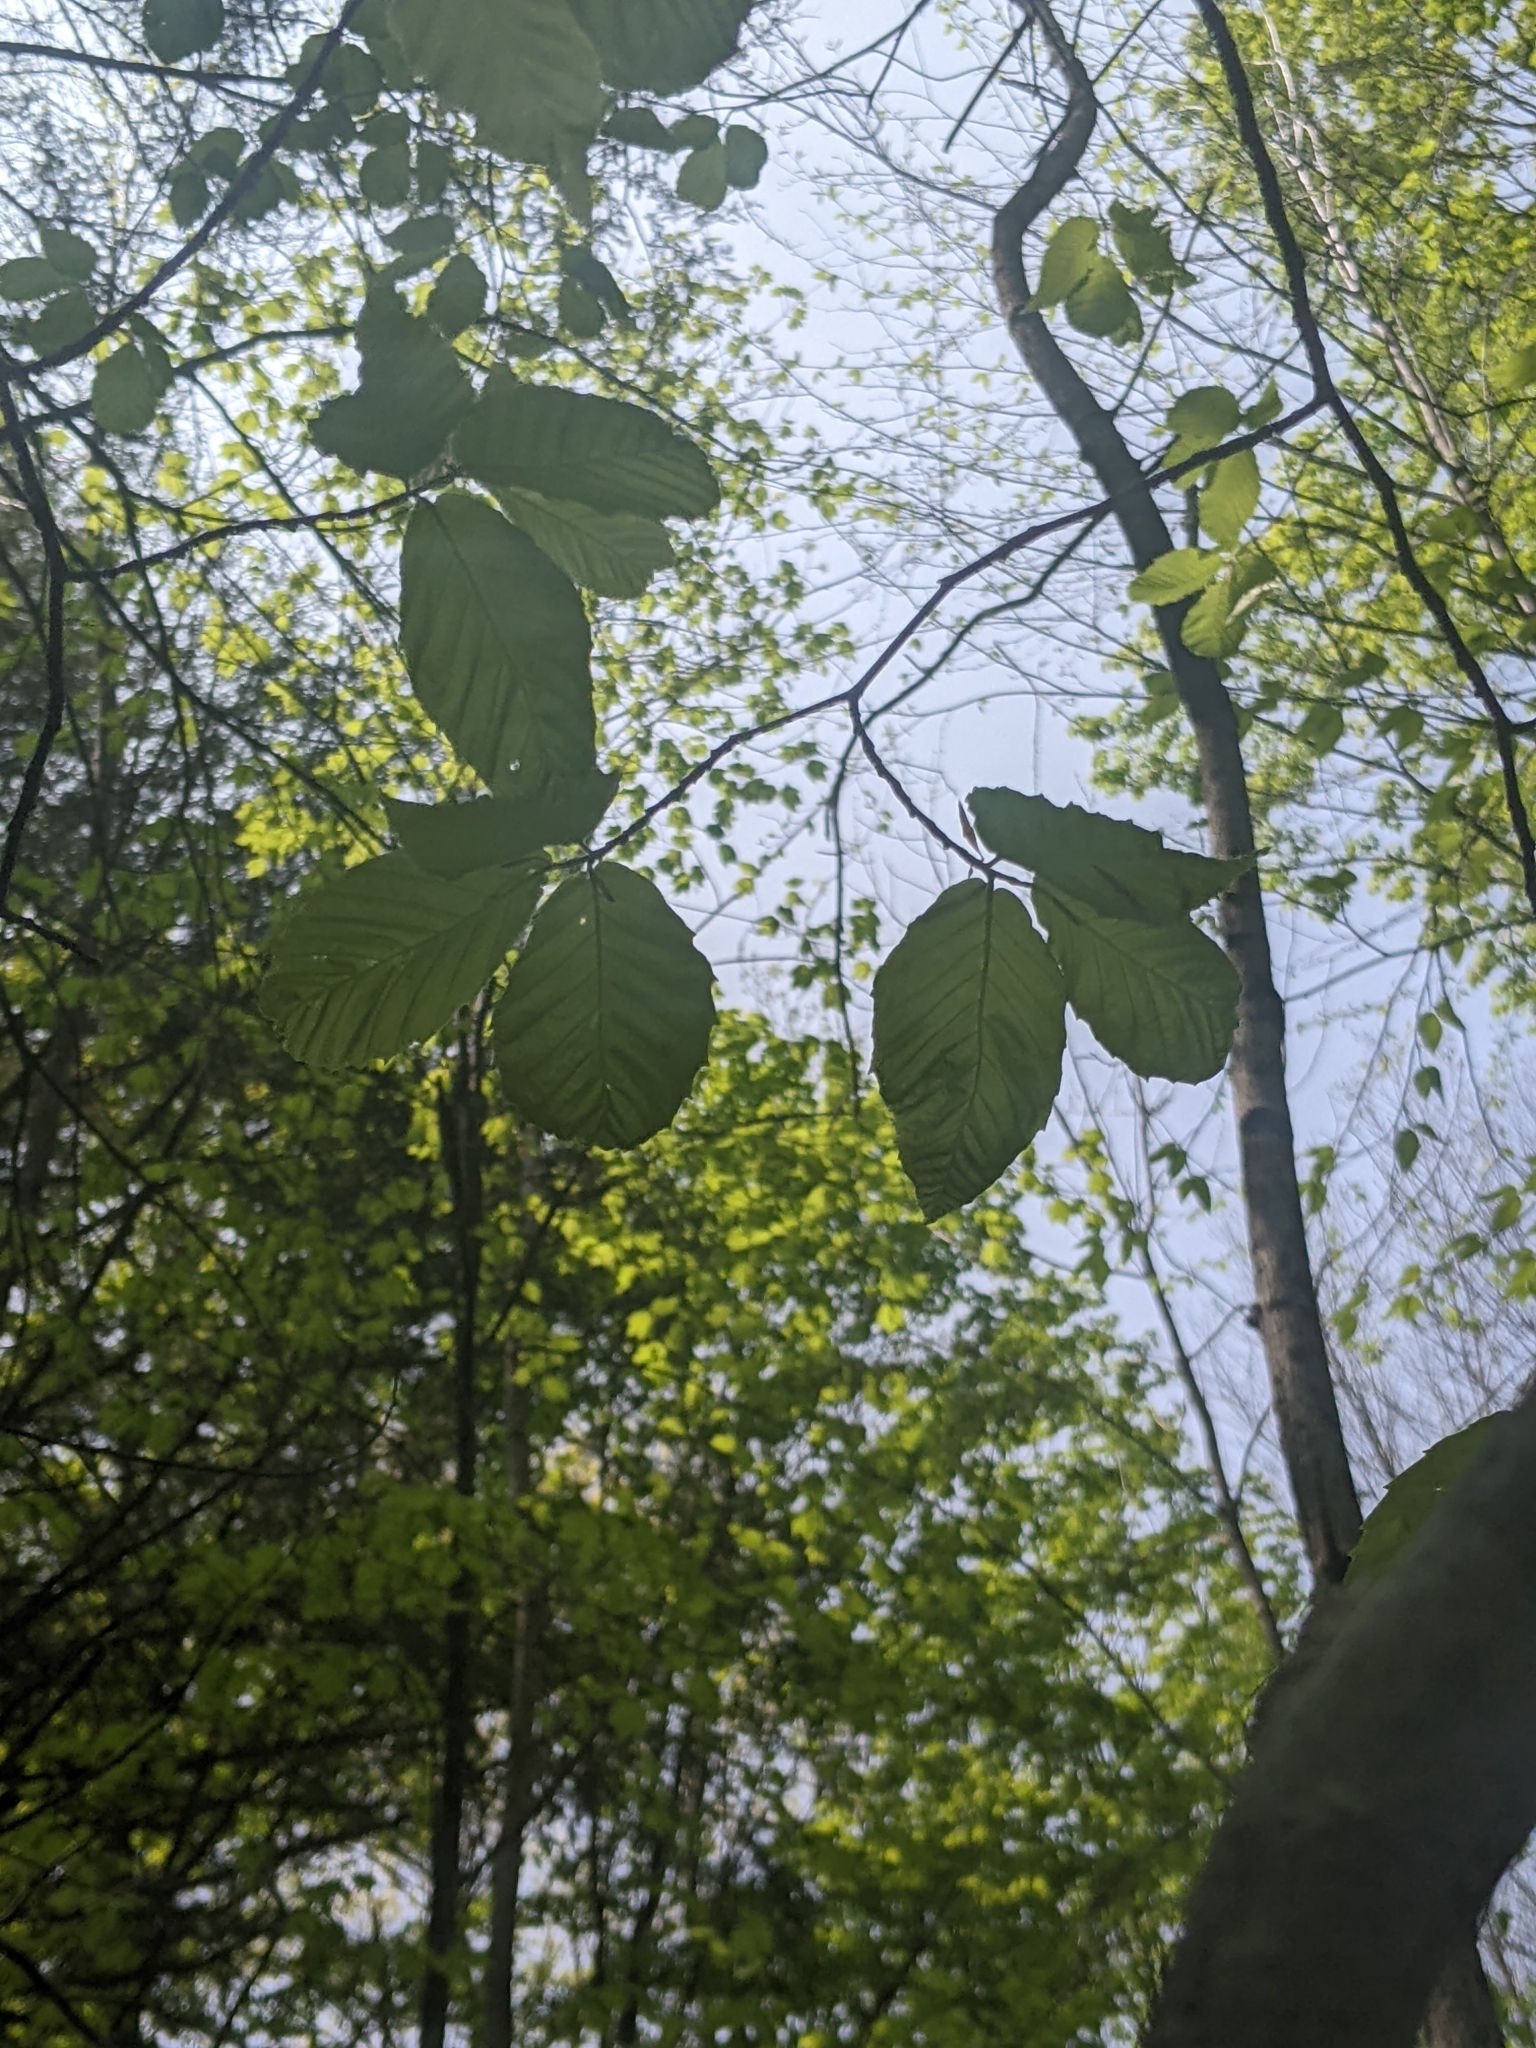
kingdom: Animalia
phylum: Nematoda
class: Chromadorea
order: Rhabditida
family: Anguinidae
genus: Litylenchus
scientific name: Litylenchus crenatae
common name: Beech leaf disease
